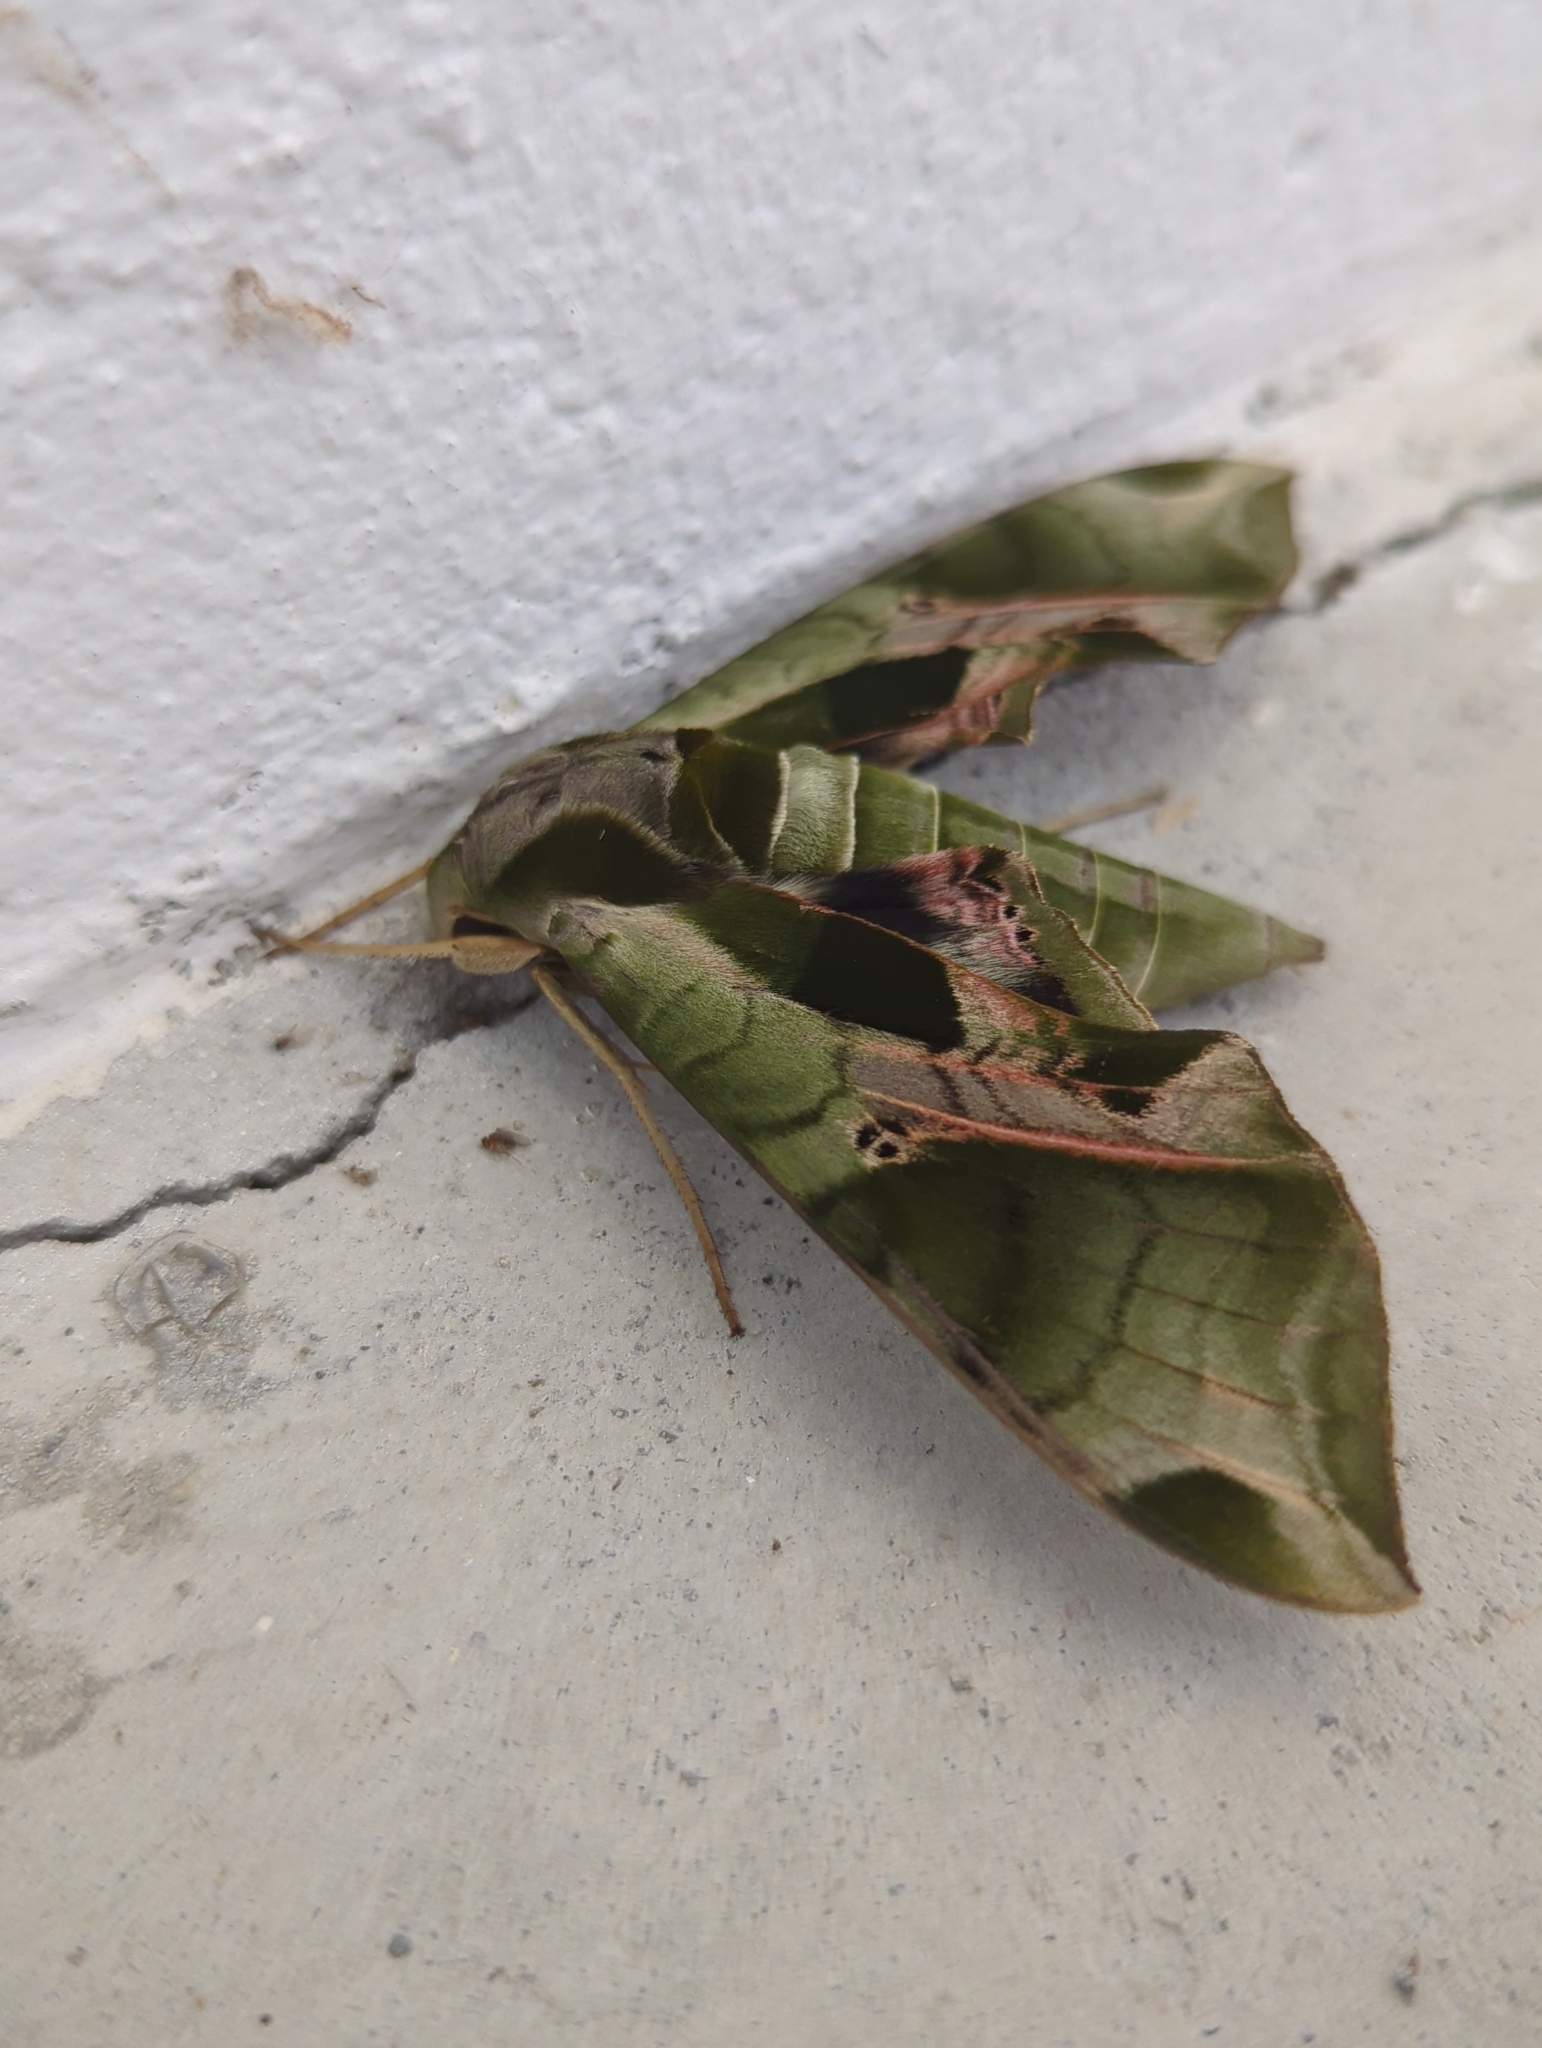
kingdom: Animalia
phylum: Arthropoda
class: Insecta
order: Lepidoptera
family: Sphingidae
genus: Eumorpha
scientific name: Eumorpha pandorus
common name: Pandora sphinx
